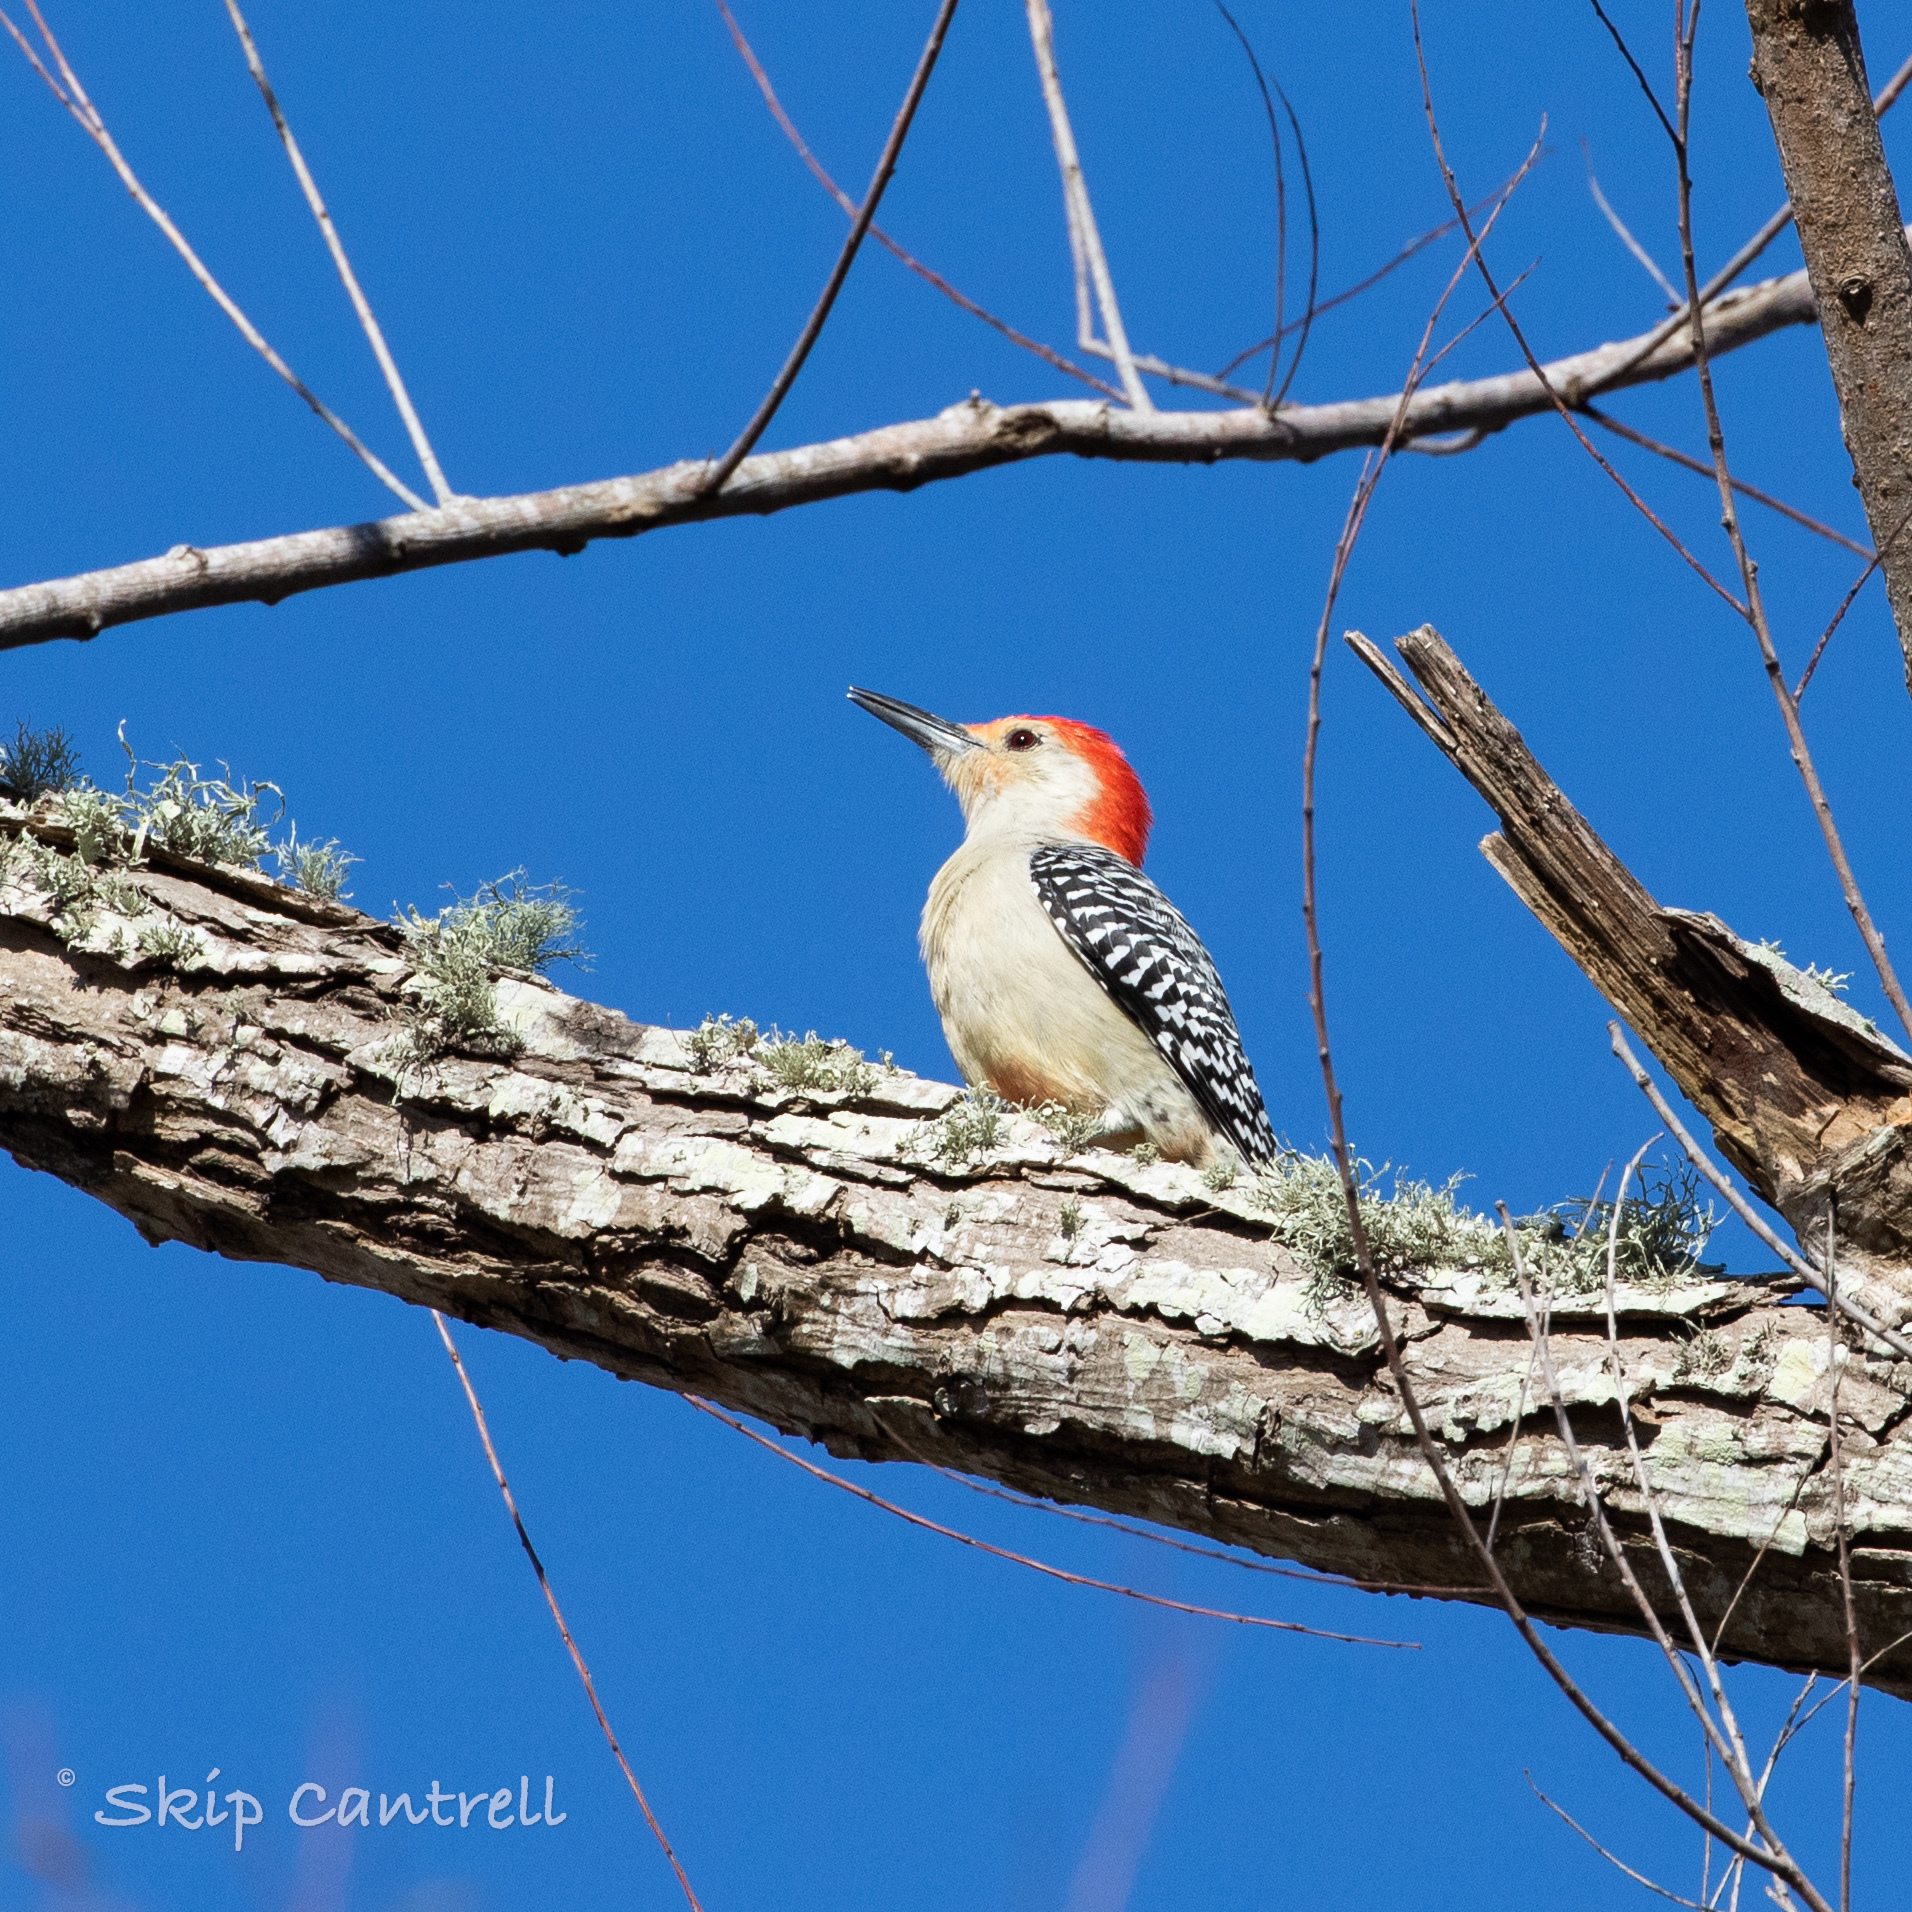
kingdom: Animalia
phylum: Chordata
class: Aves
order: Piciformes
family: Picidae
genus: Melanerpes
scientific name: Melanerpes carolinus
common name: Red-bellied woodpecker
